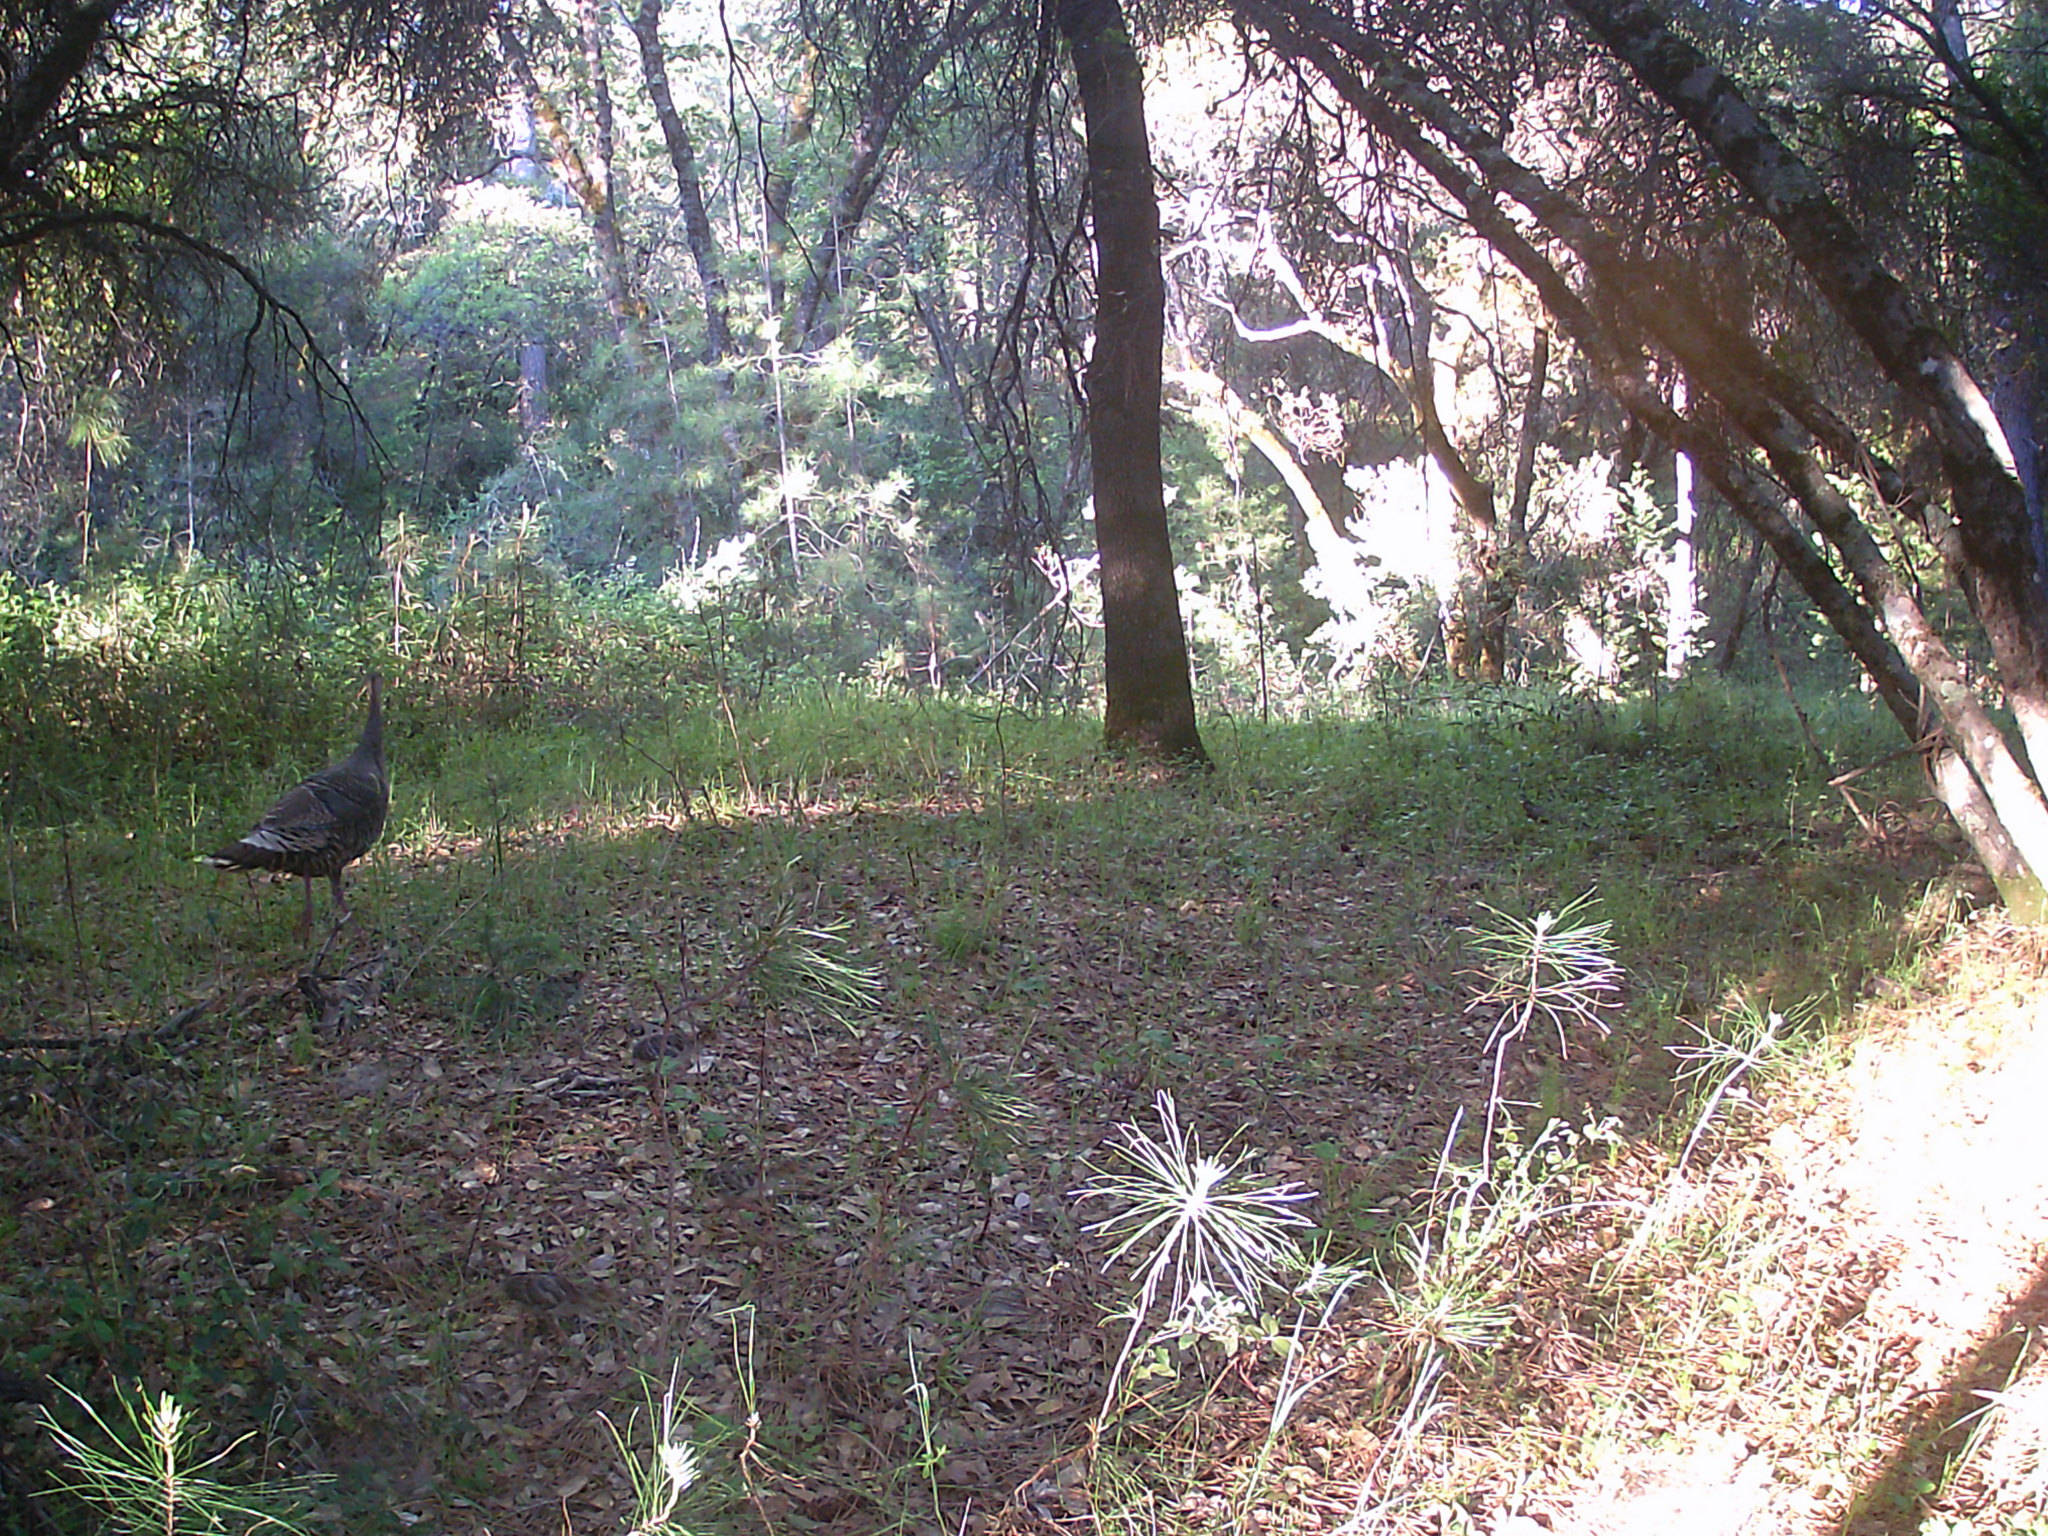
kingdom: Animalia
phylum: Chordata
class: Aves
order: Galliformes
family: Phasianidae
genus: Meleagris
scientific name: Meleagris gallopavo
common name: Wild turkey
